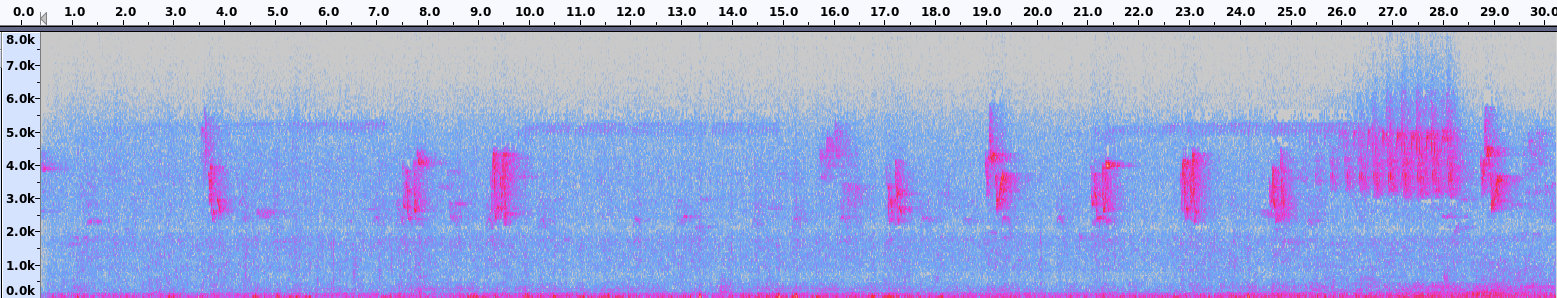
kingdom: Animalia
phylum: Chordata
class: Aves
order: Passeriformes
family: Vireonidae
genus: Vireo
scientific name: Vireo olivaceus
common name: Red-eyed vireo
